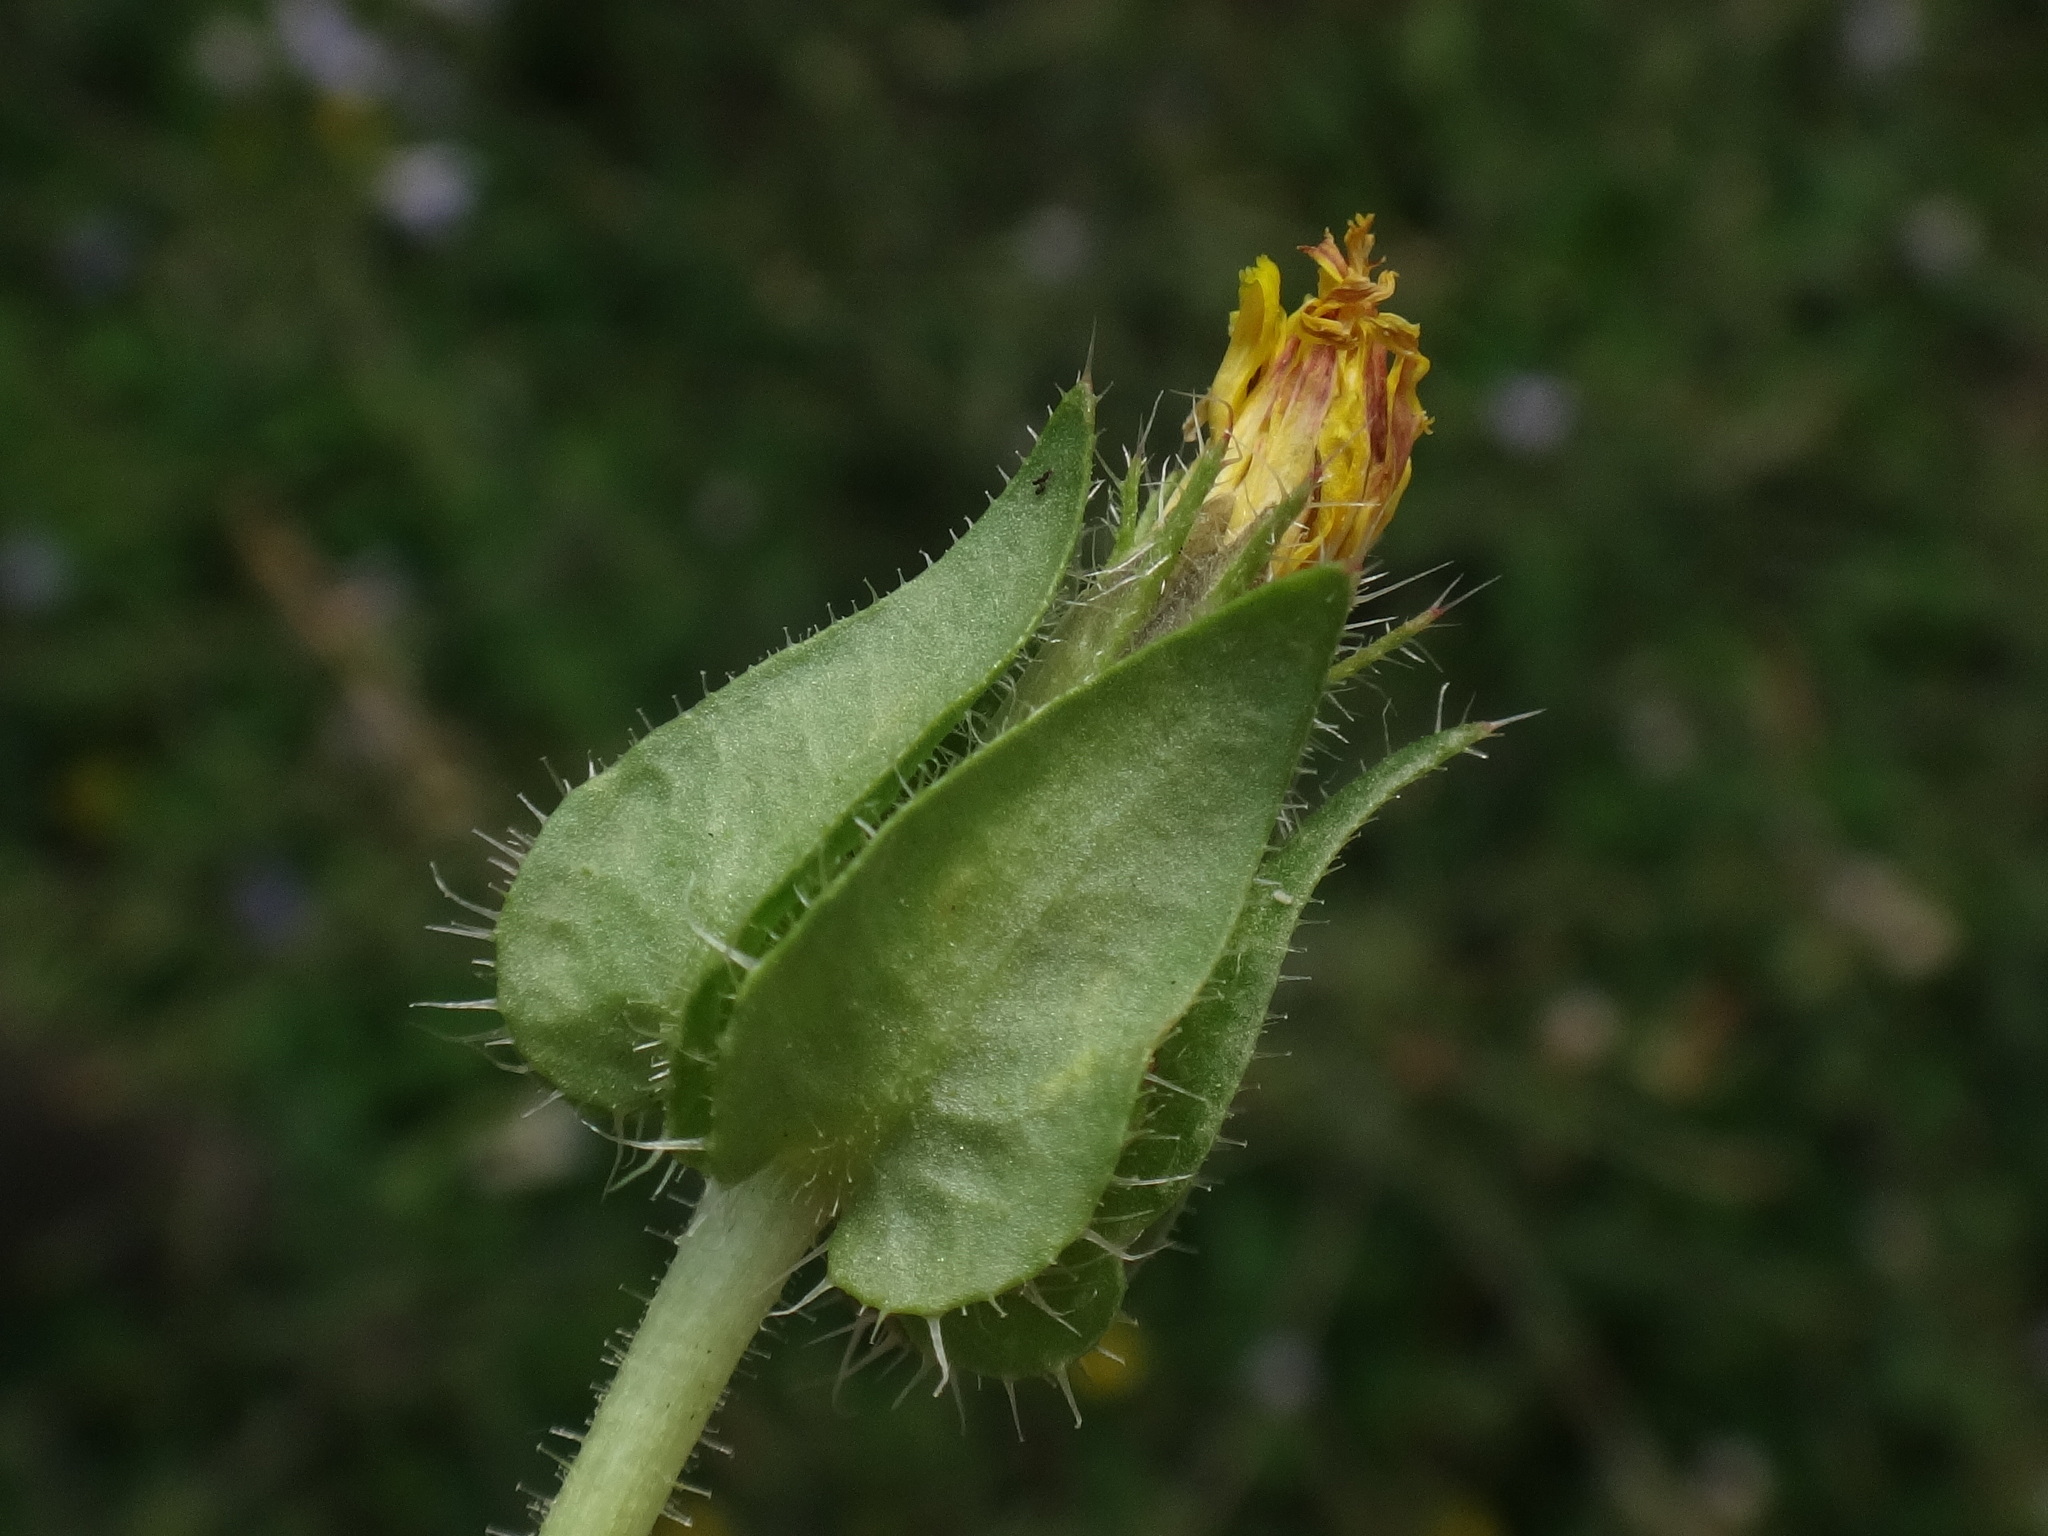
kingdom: Plantae
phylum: Tracheophyta
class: Magnoliopsida
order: Asterales
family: Asteraceae
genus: Helminthotheca
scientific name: Helminthotheca echioides
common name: Ox-tongue
